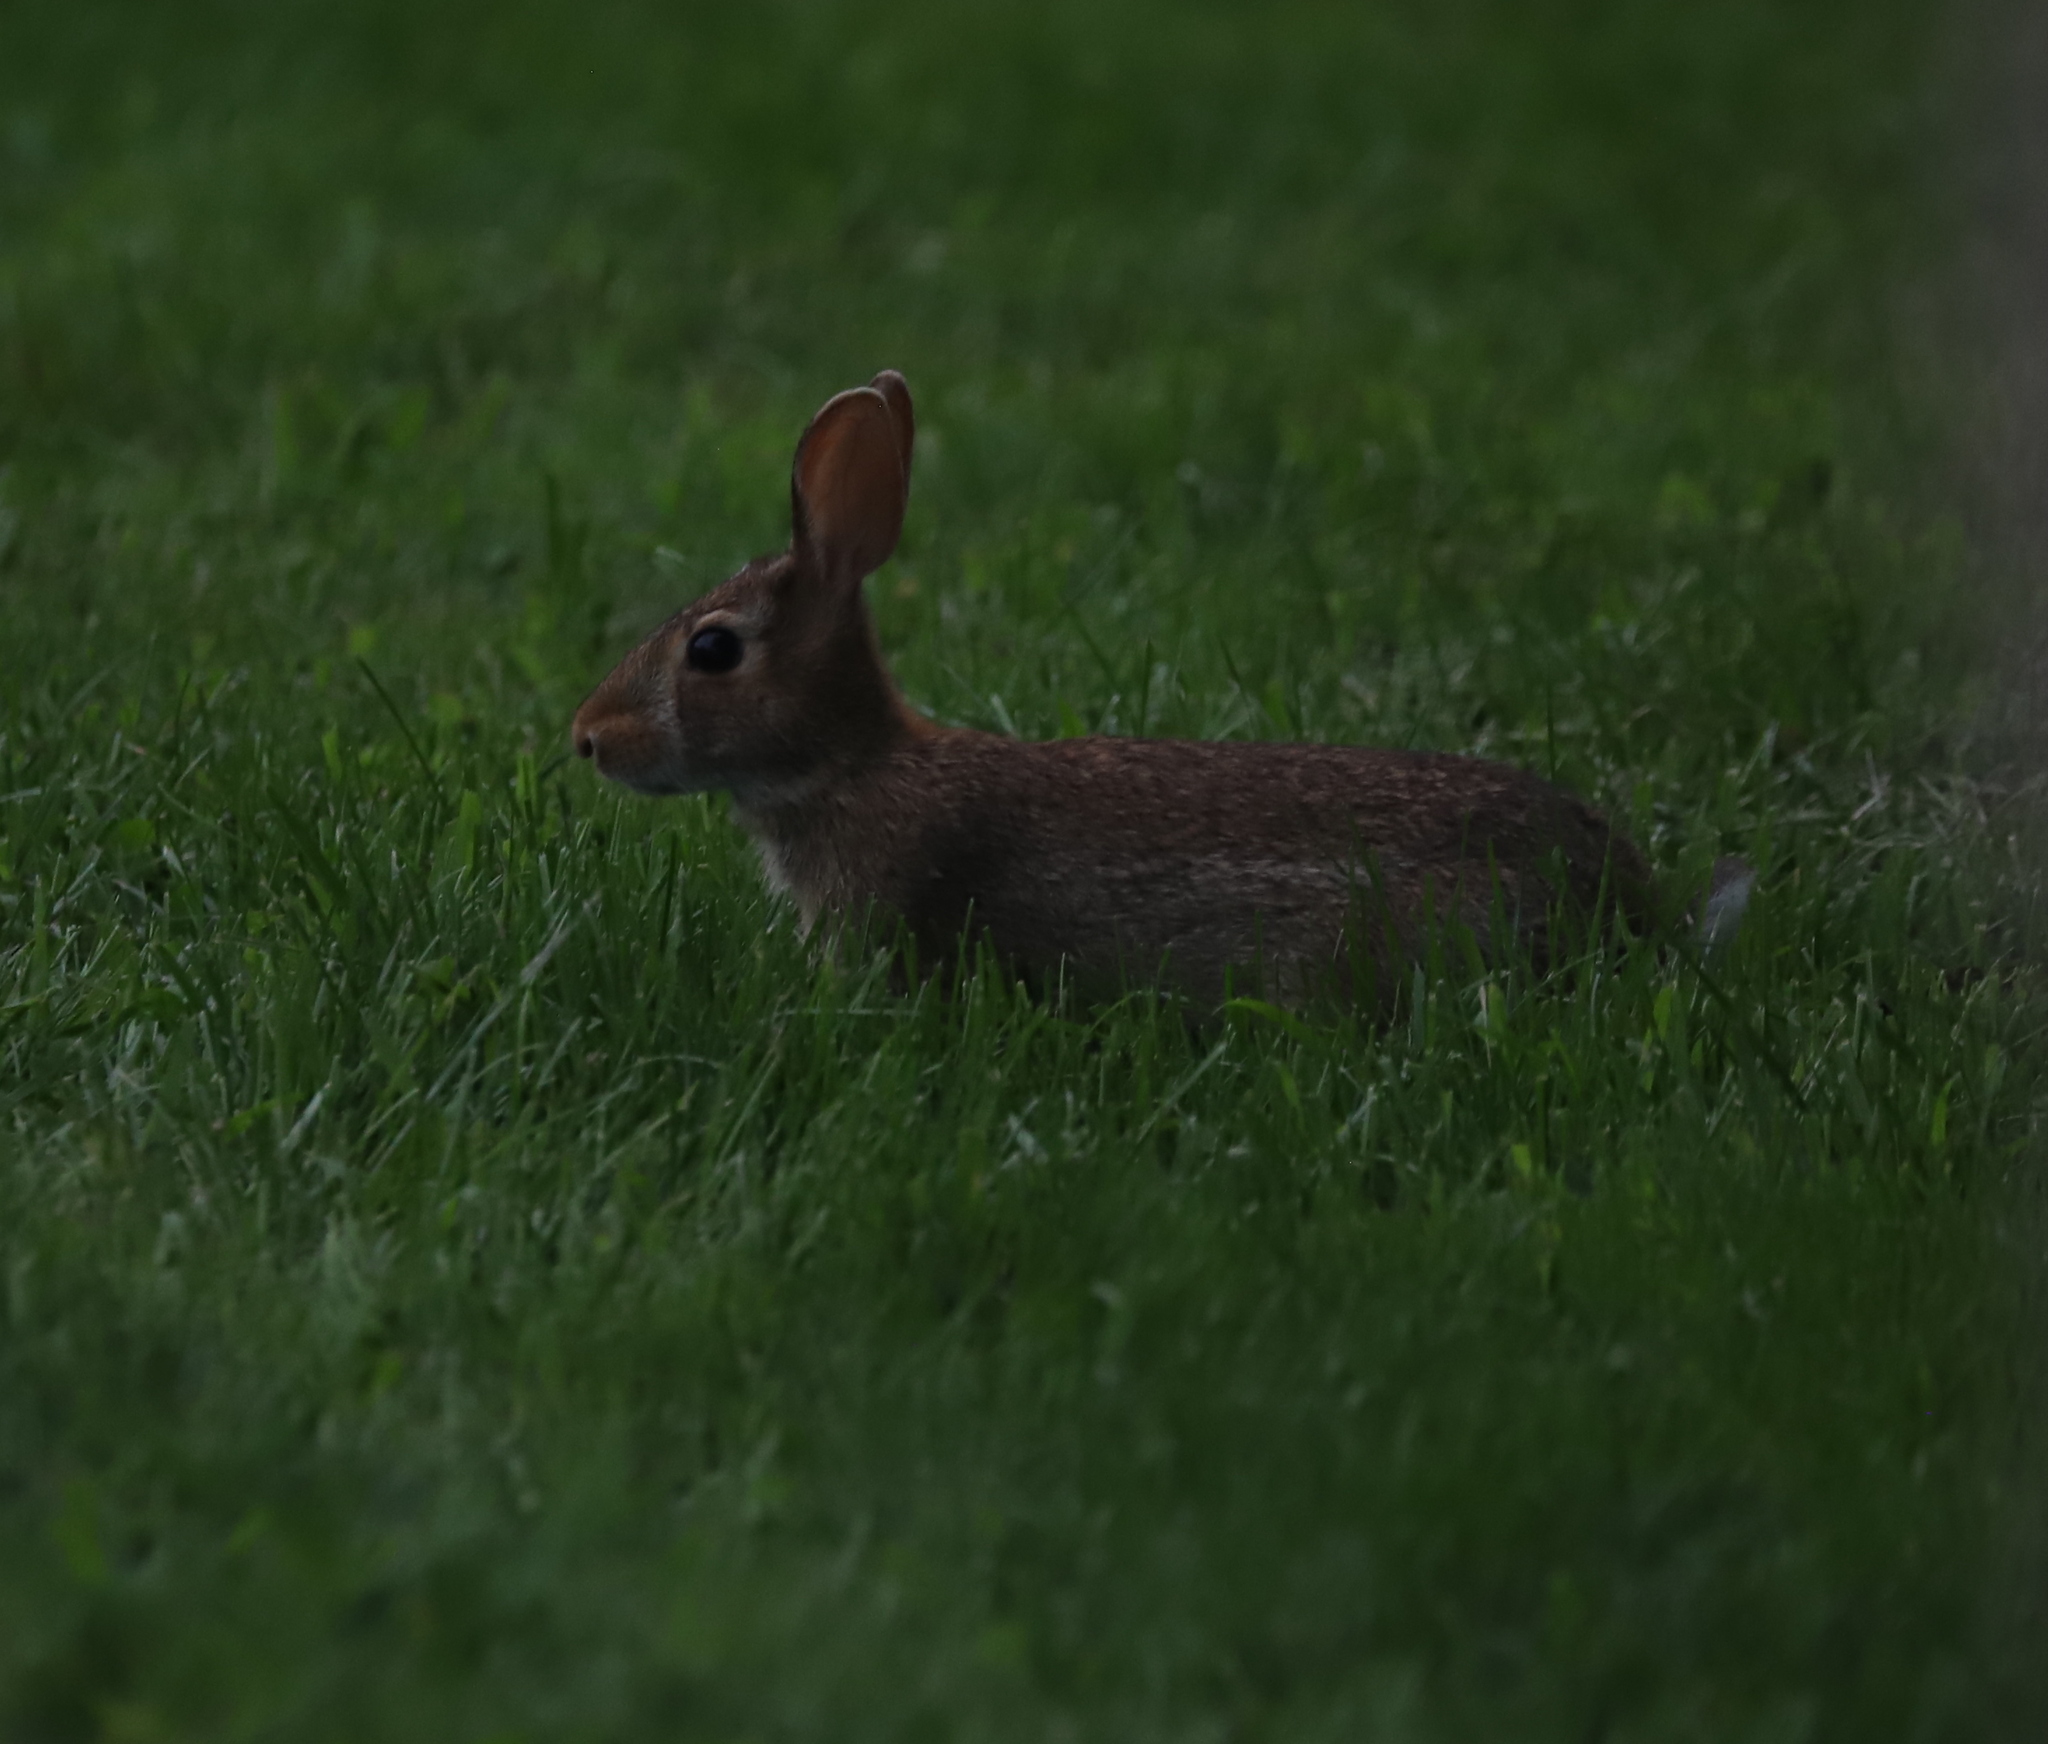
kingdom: Animalia
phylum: Chordata
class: Mammalia
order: Lagomorpha
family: Leporidae
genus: Sylvilagus
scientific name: Sylvilagus floridanus
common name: Eastern cottontail
